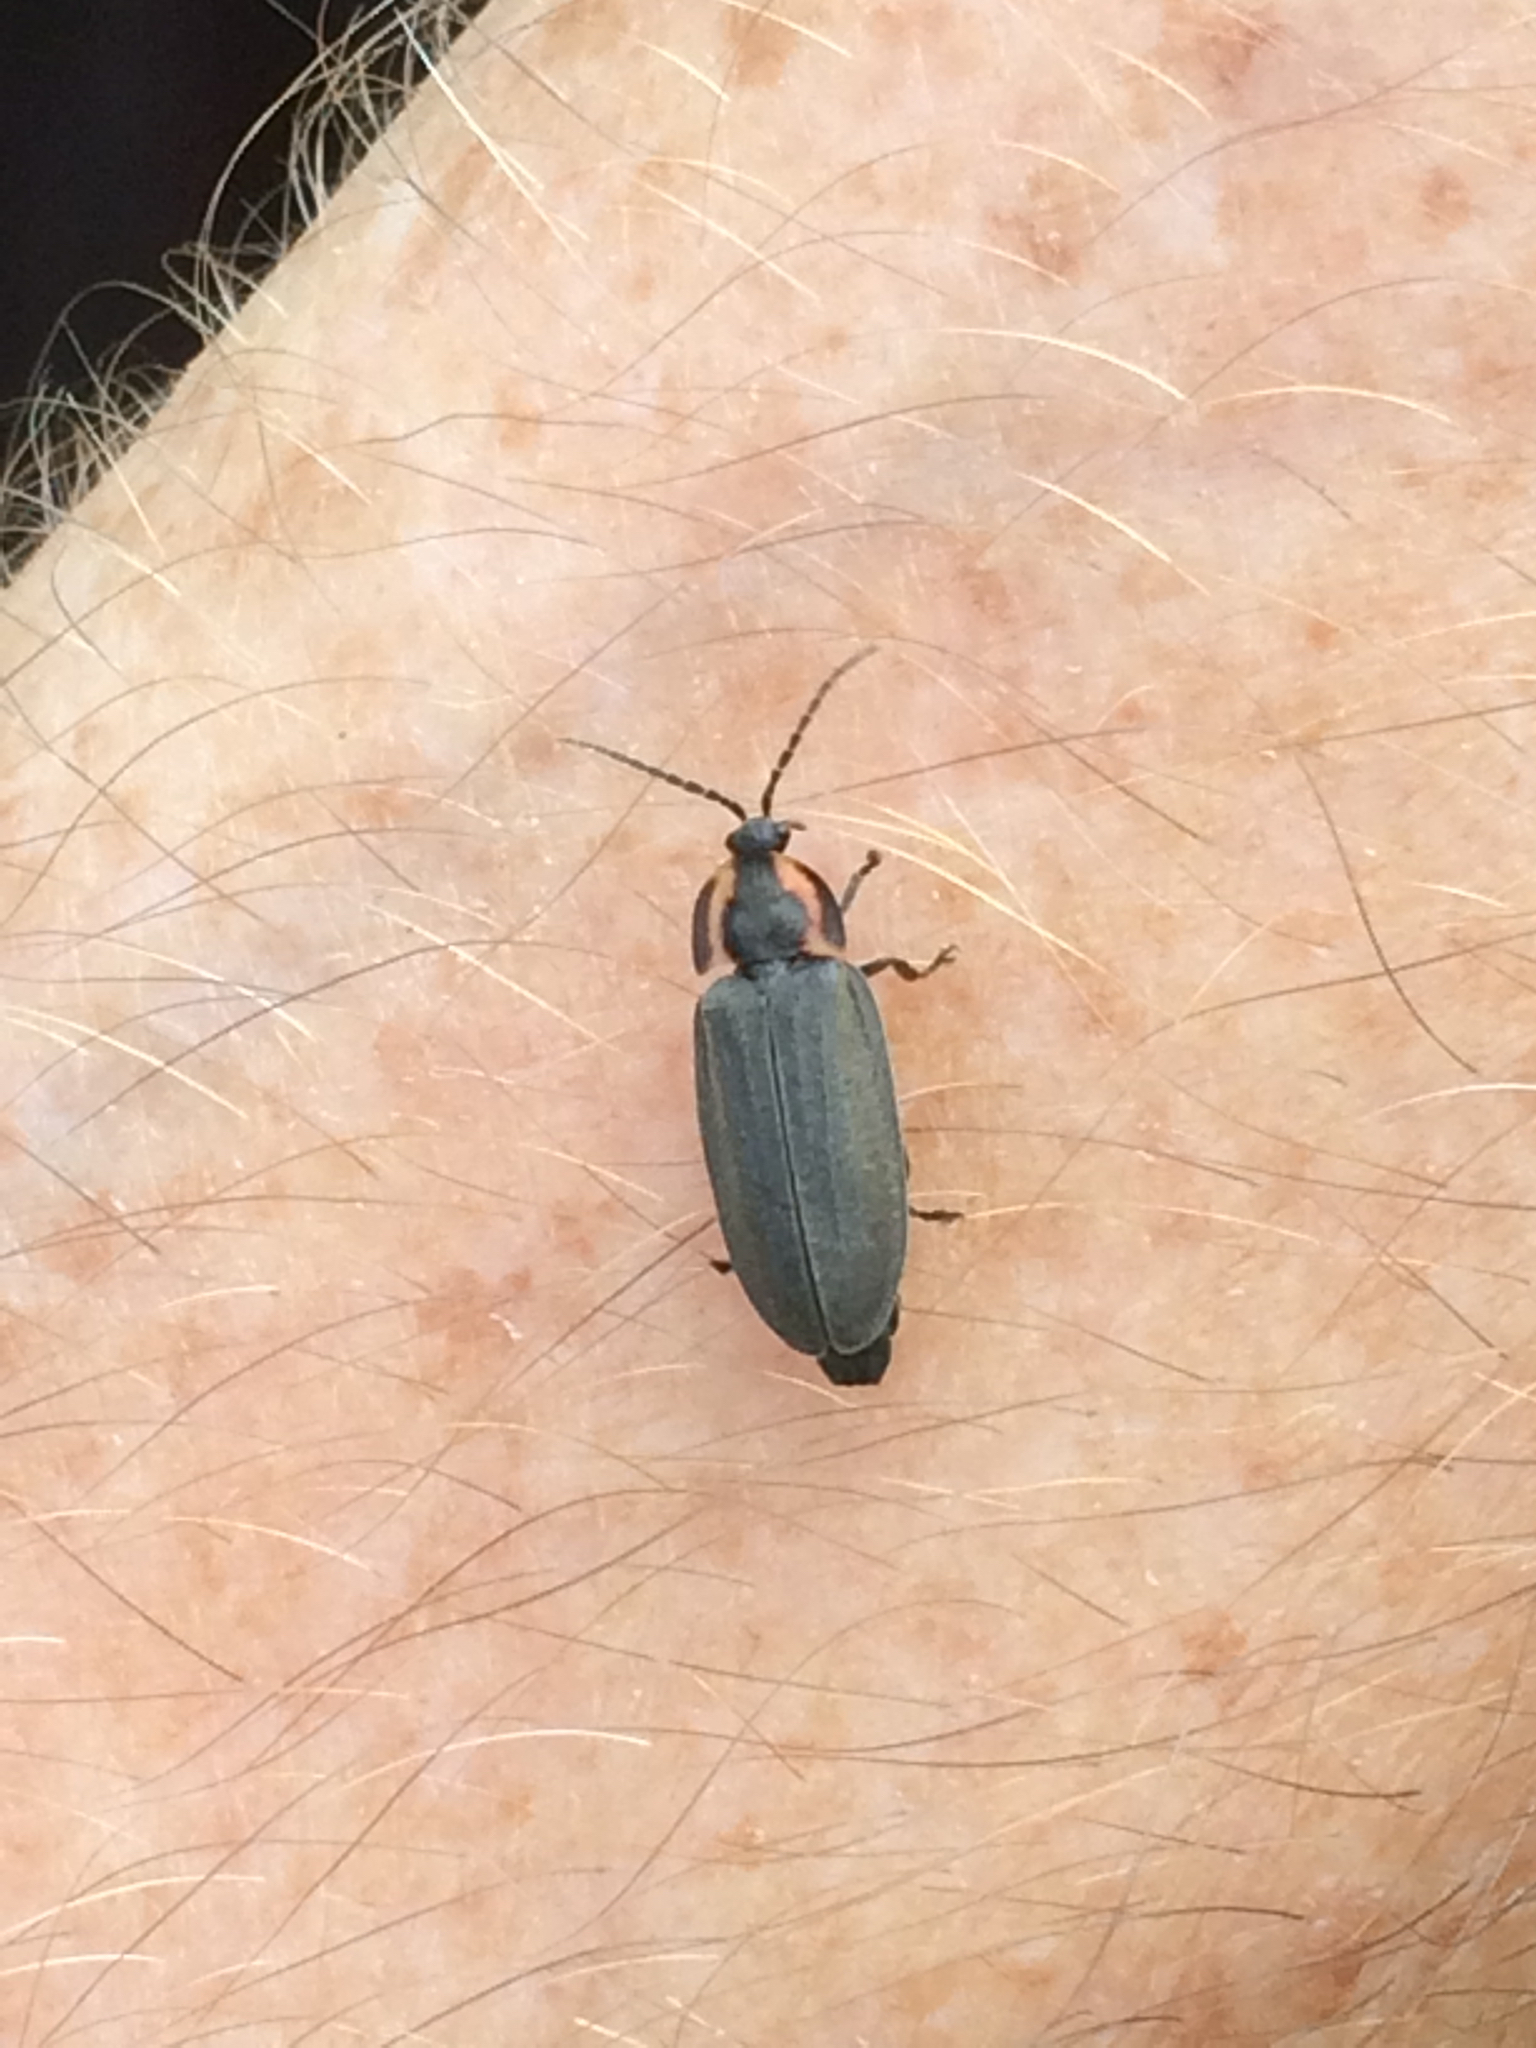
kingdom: Animalia
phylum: Arthropoda
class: Insecta
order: Coleoptera
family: Lampyridae
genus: Photinus
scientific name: Photinus corrusca
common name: Winter firefly
